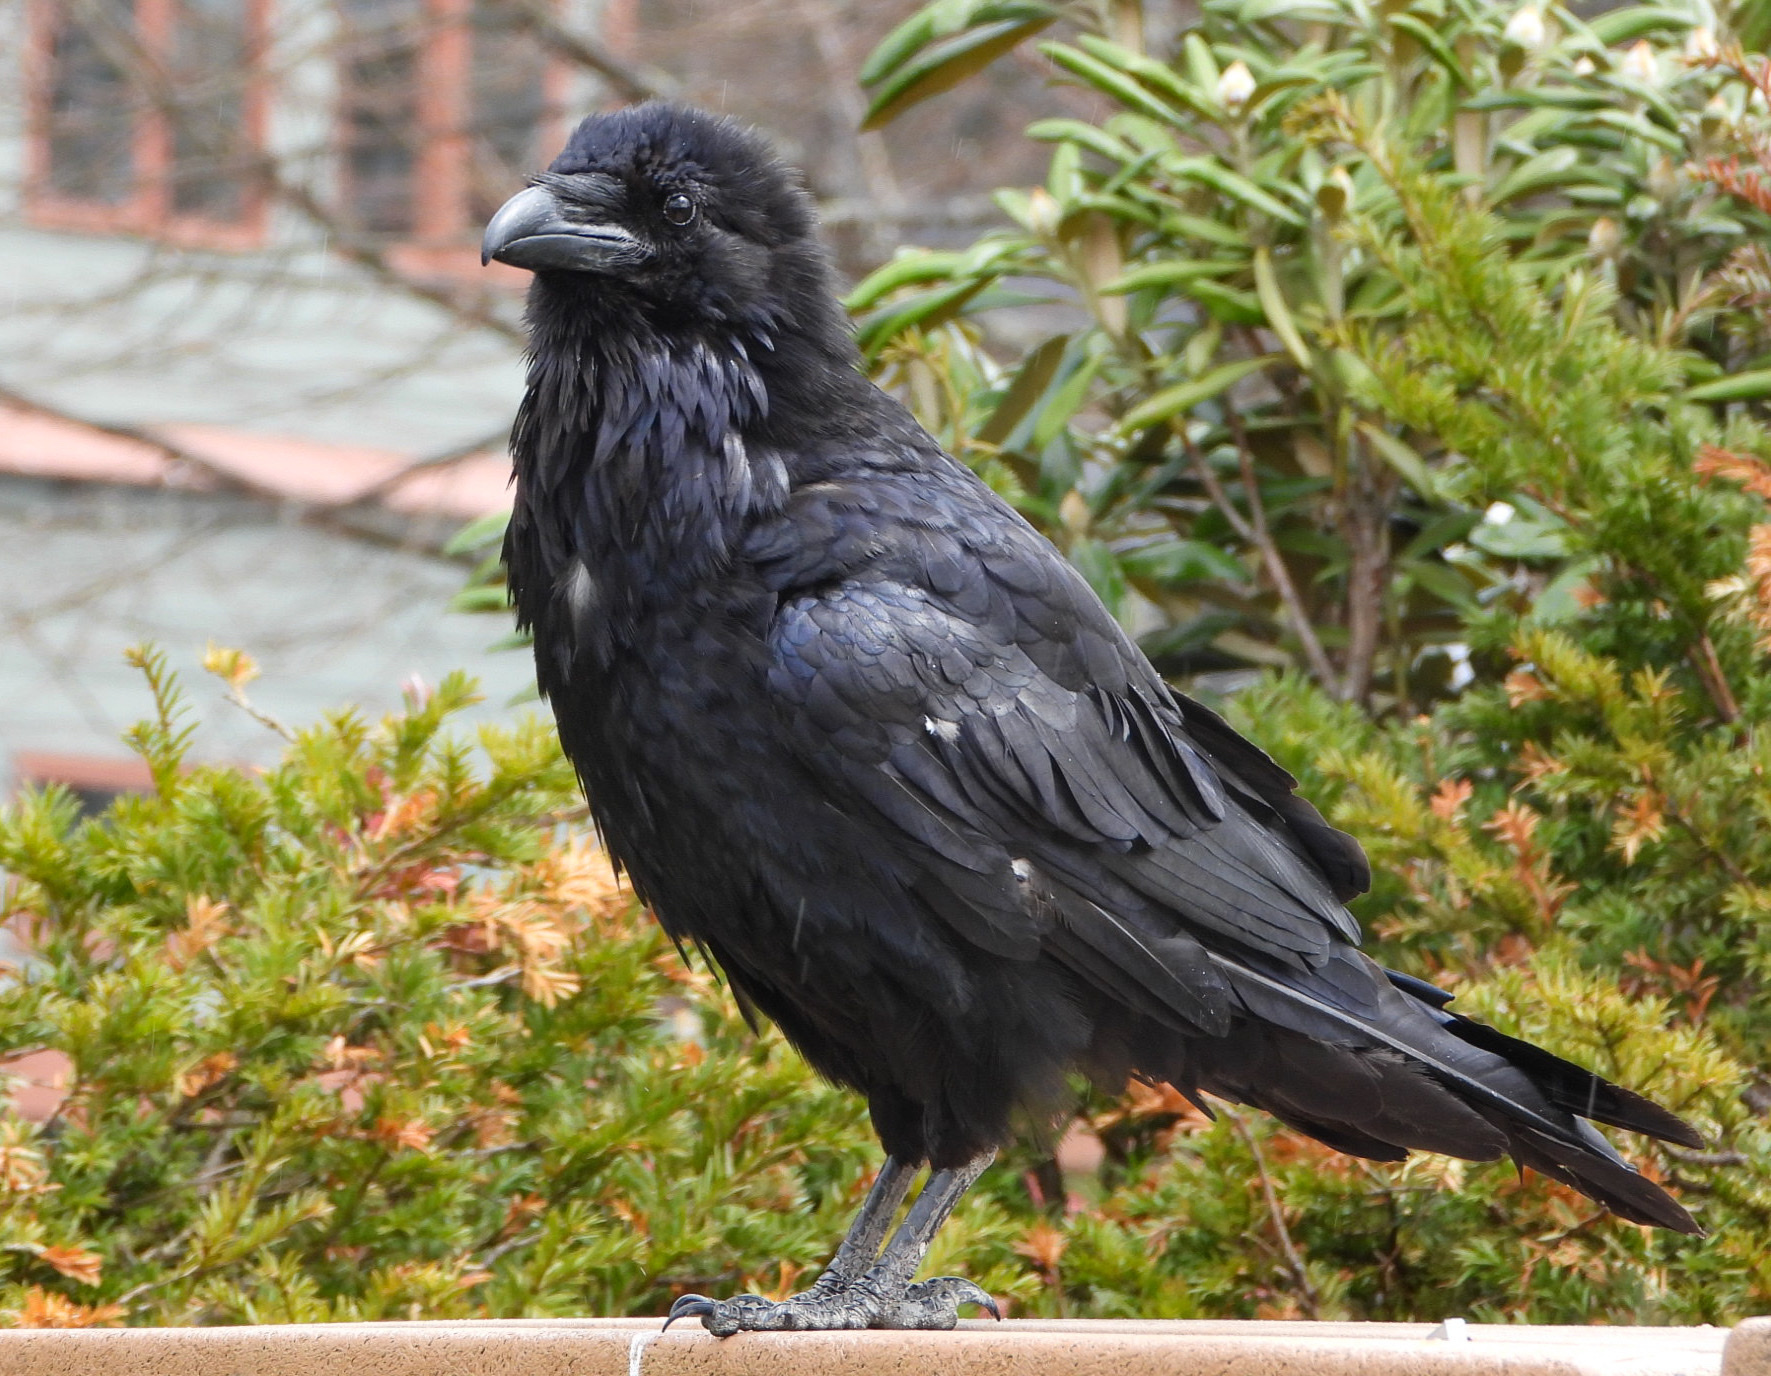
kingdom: Animalia
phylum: Chordata
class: Aves
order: Passeriformes
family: Corvidae
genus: Corvus
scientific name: Corvus corax
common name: Common raven
